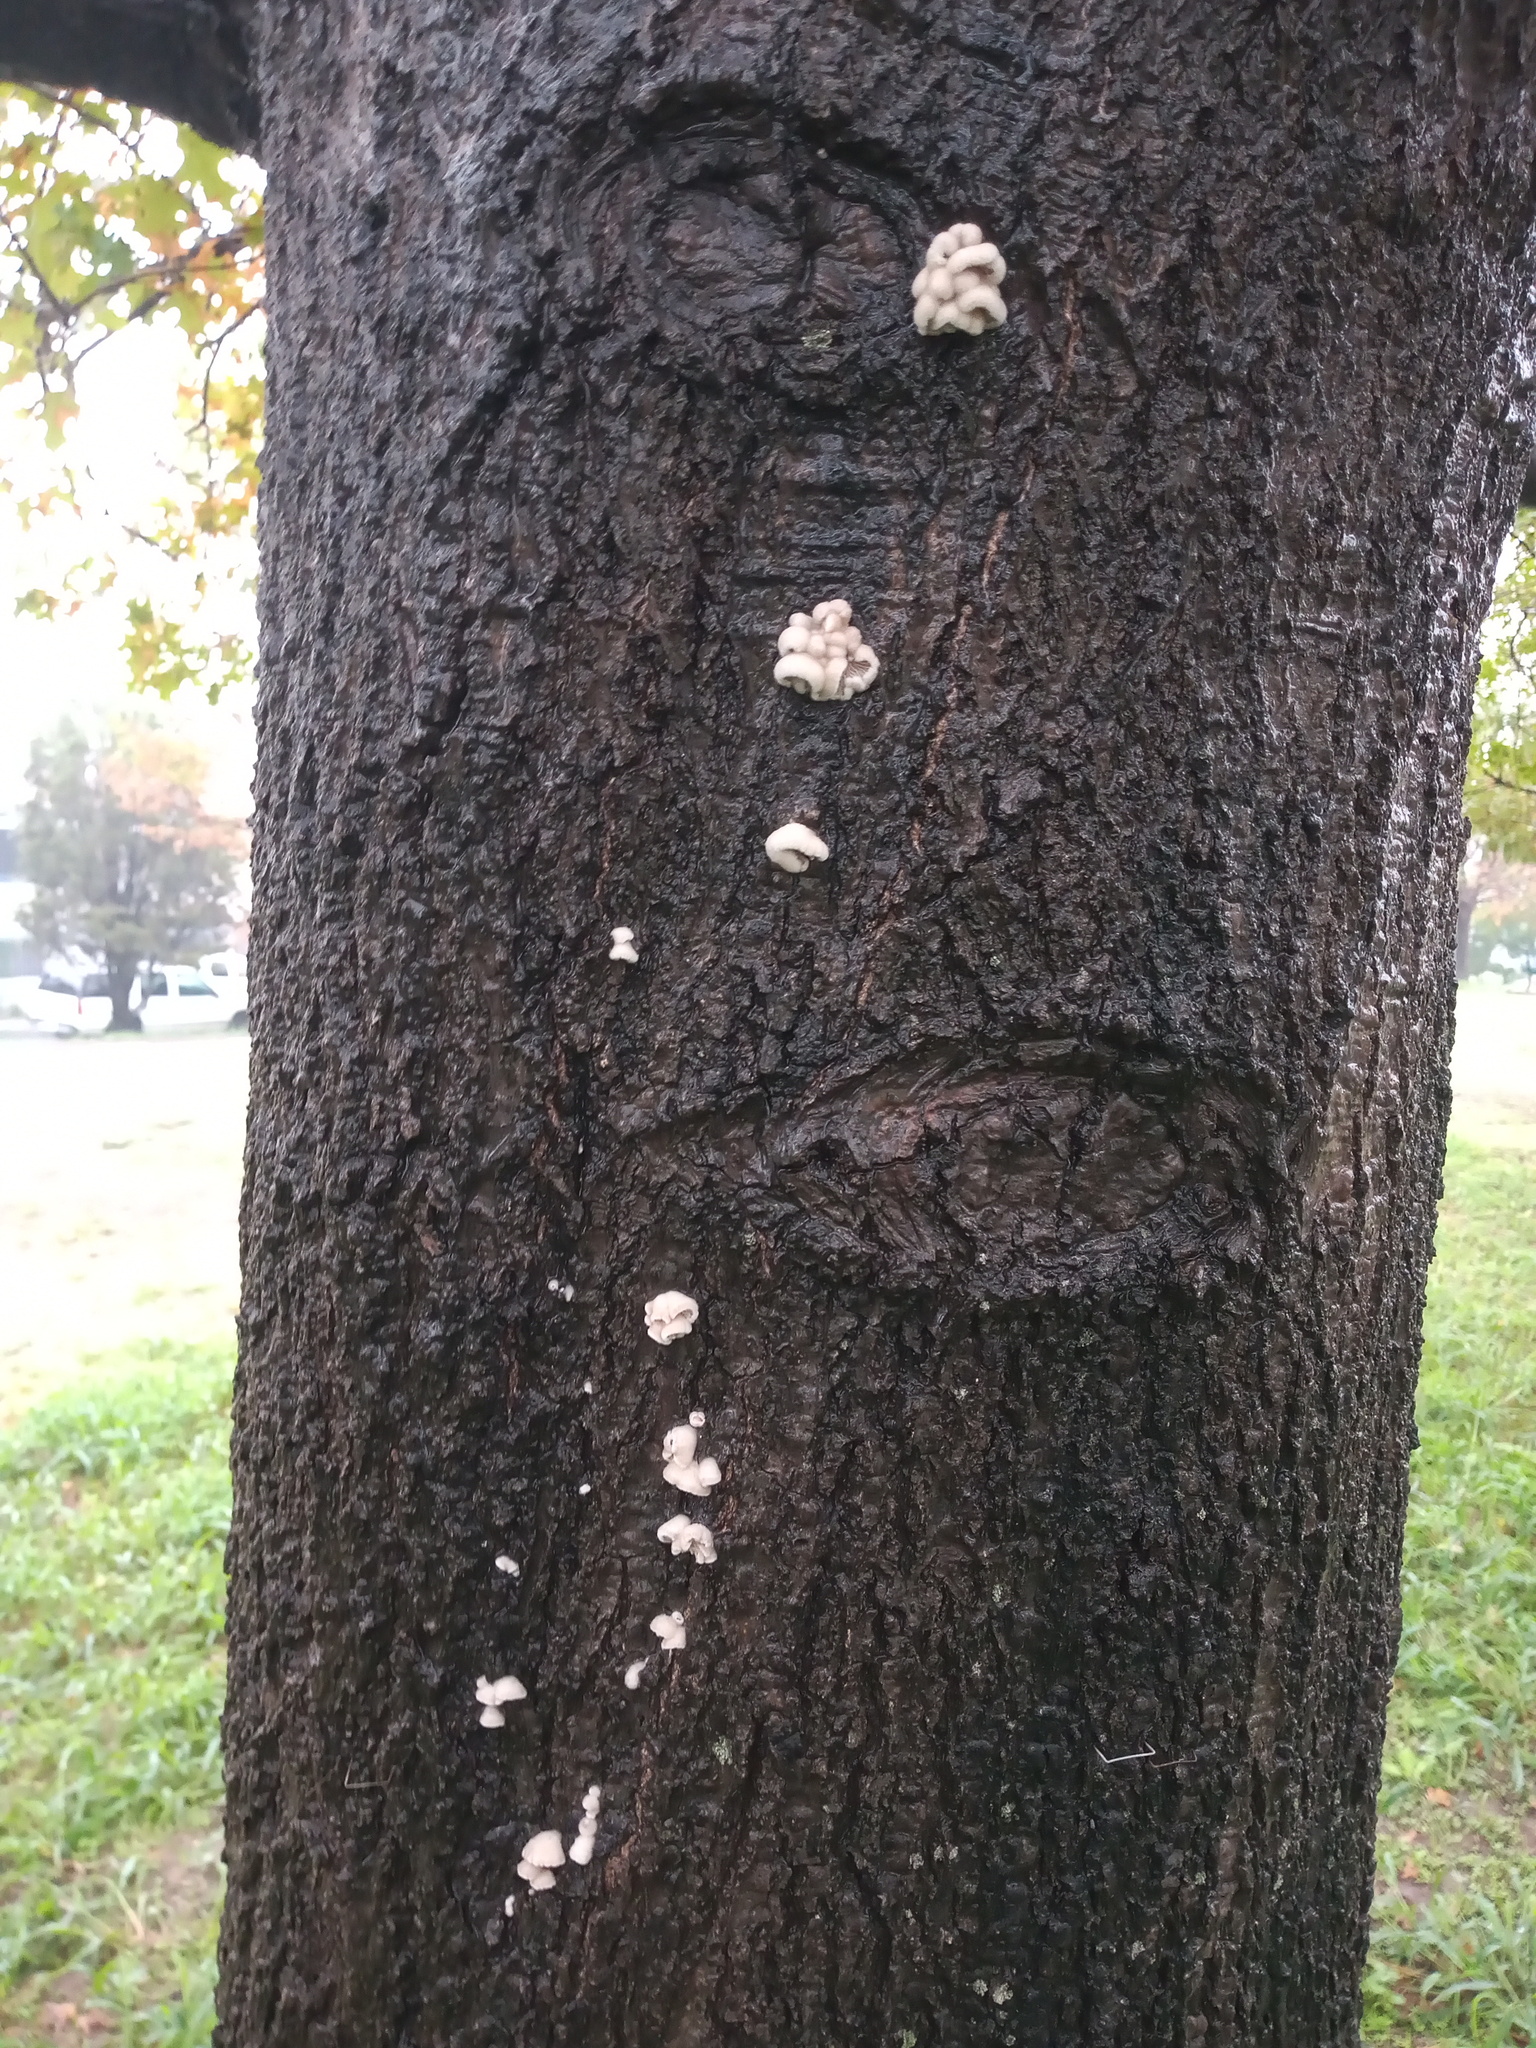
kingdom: Fungi
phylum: Basidiomycota
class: Agaricomycetes
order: Agaricales
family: Schizophyllaceae
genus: Schizophyllum
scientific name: Schizophyllum commune
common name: Common porecrust
